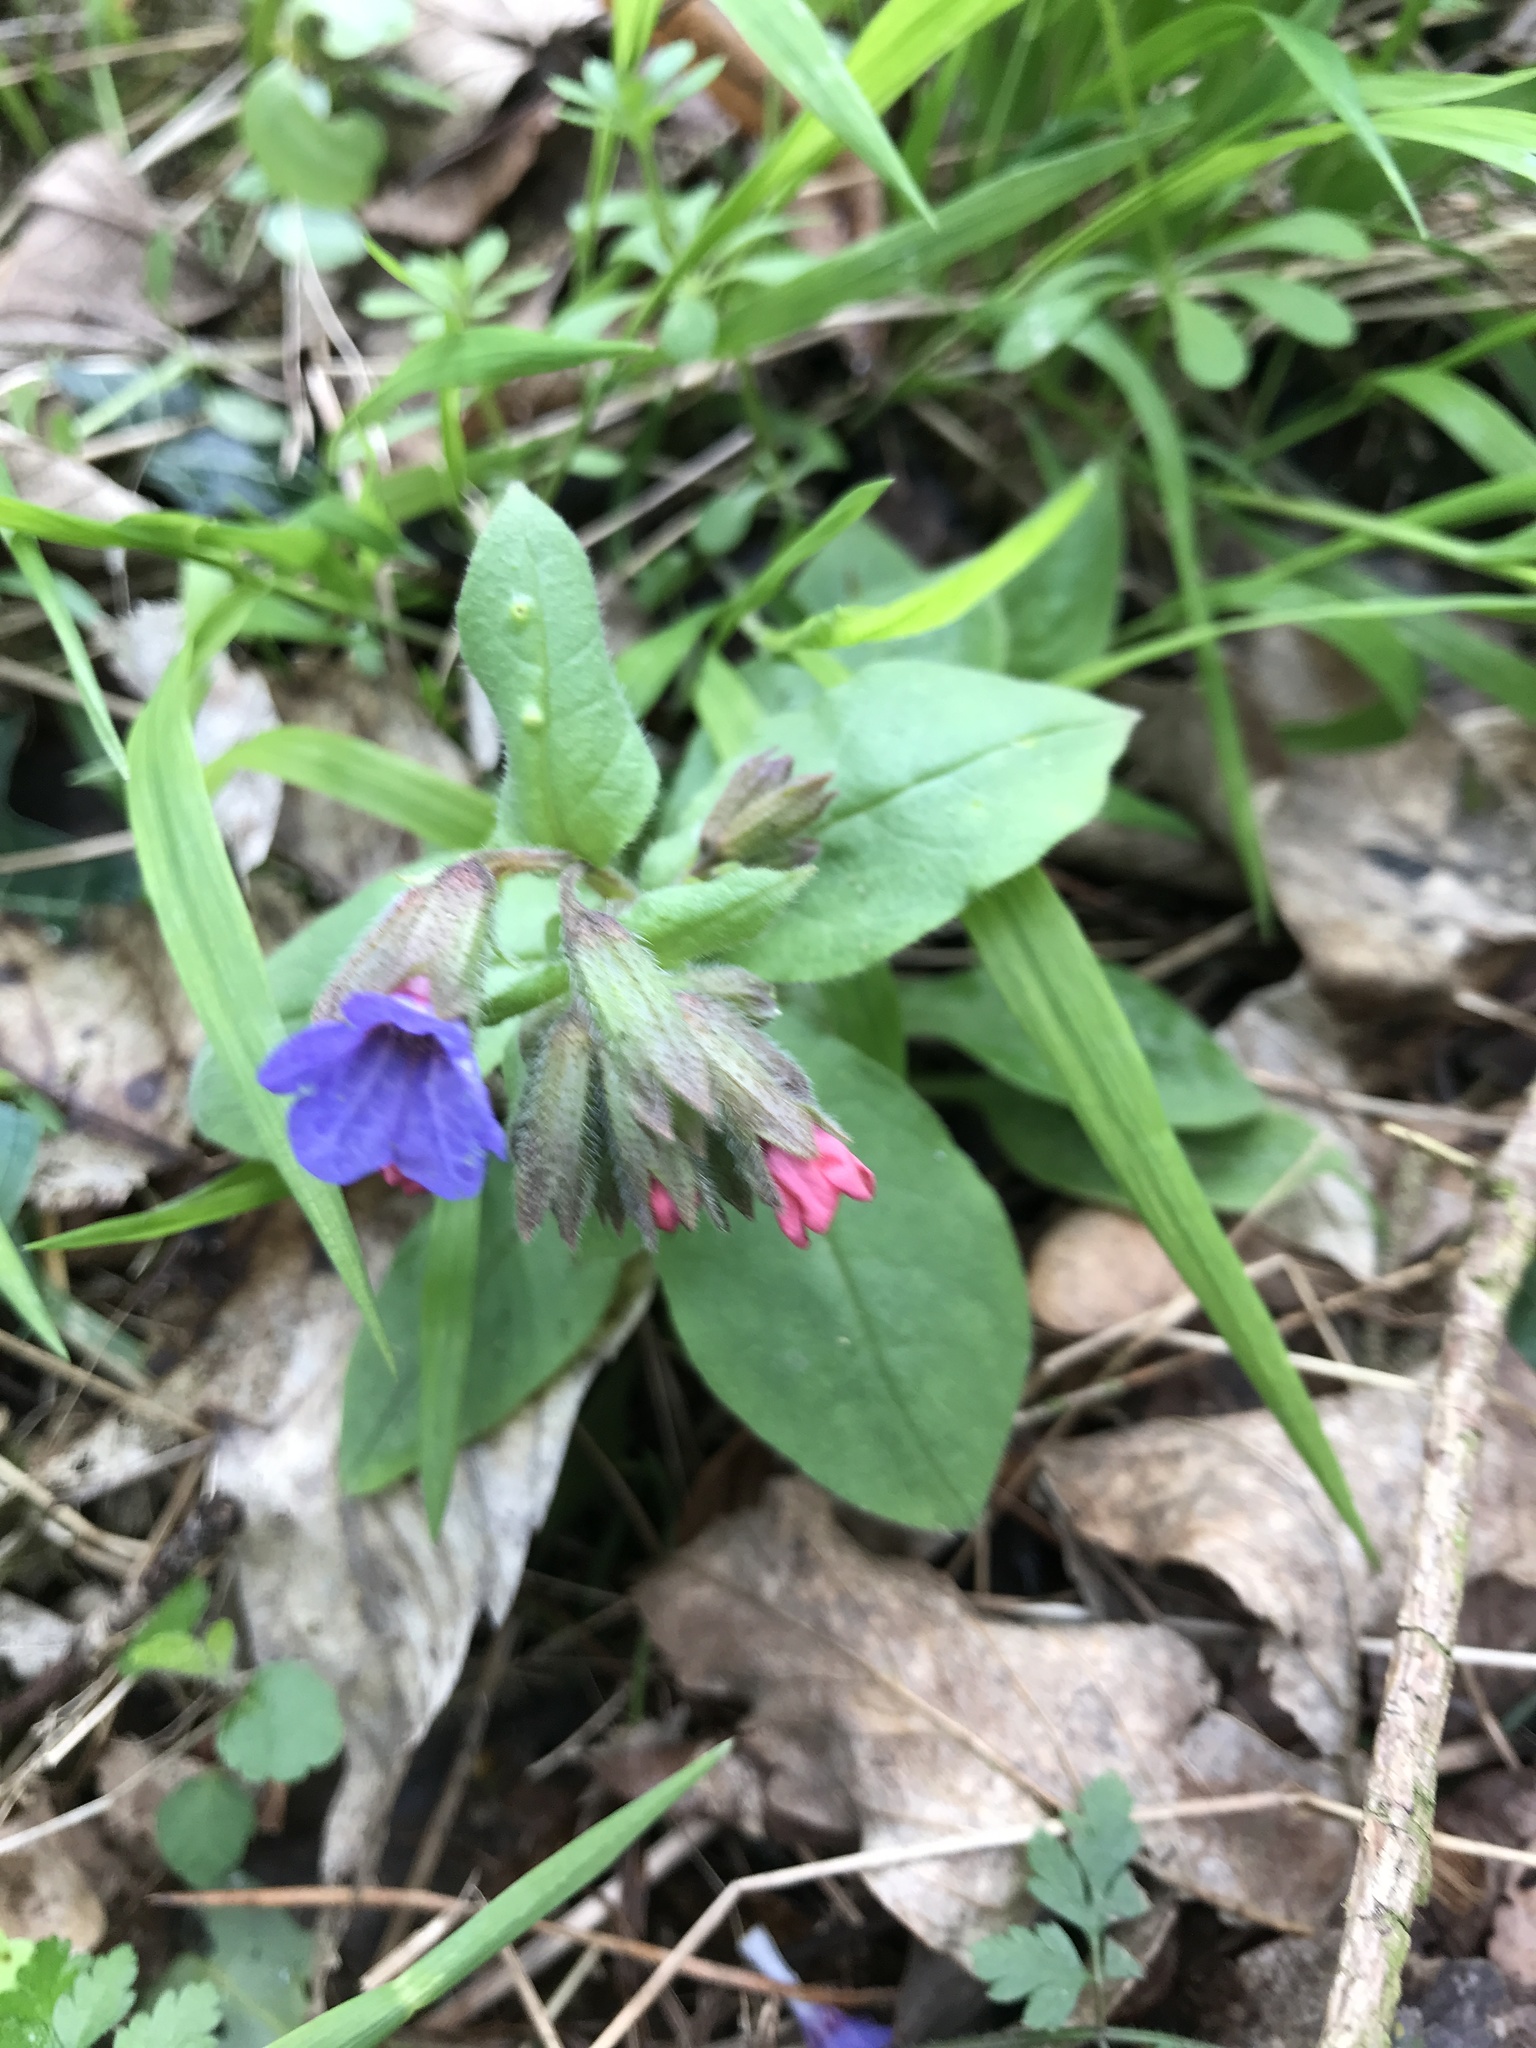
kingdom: Plantae
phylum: Tracheophyta
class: Magnoliopsida
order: Boraginales
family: Boraginaceae
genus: Pulmonaria
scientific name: Pulmonaria officinalis
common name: Lungwort
